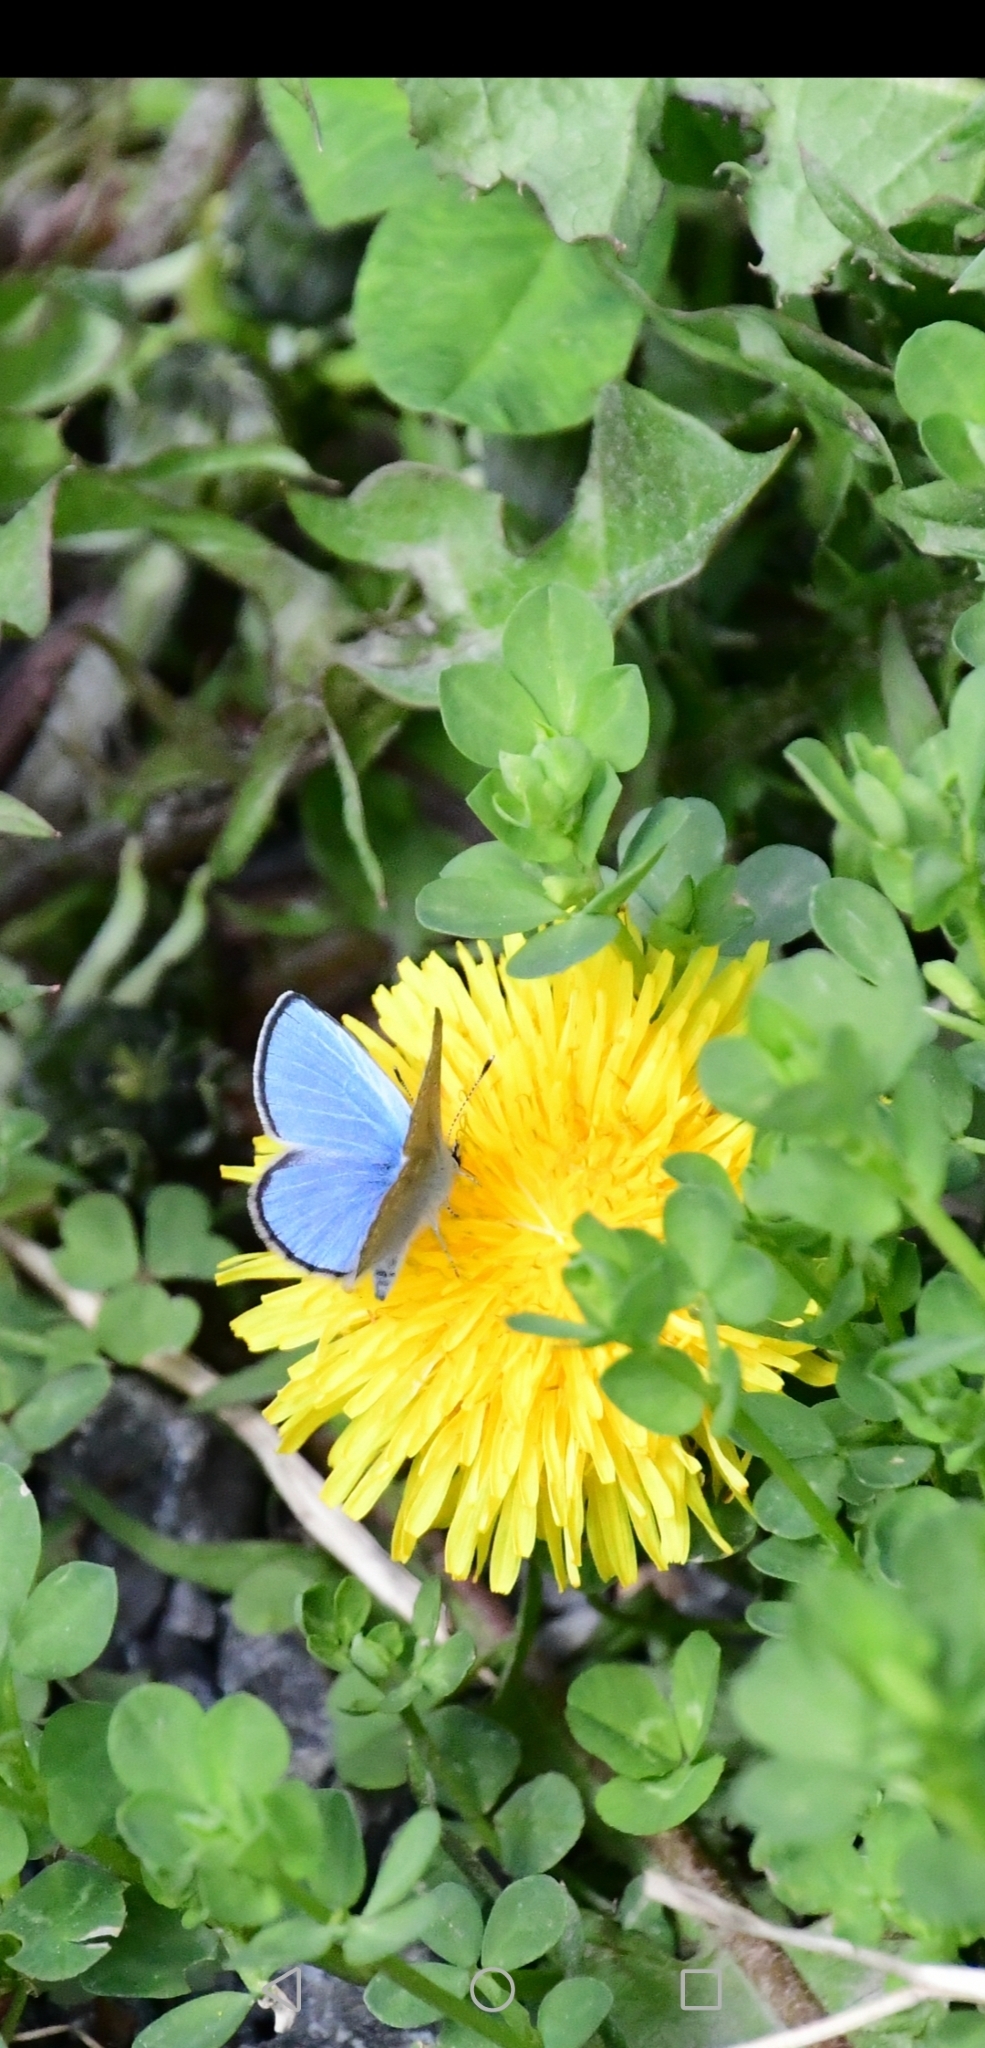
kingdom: Animalia
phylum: Arthropoda
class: Insecta
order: Lepidoptera
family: Lycaenidae
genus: Glaucopsyche
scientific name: Glaucopsyche lygdamus
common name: Silvery blue
